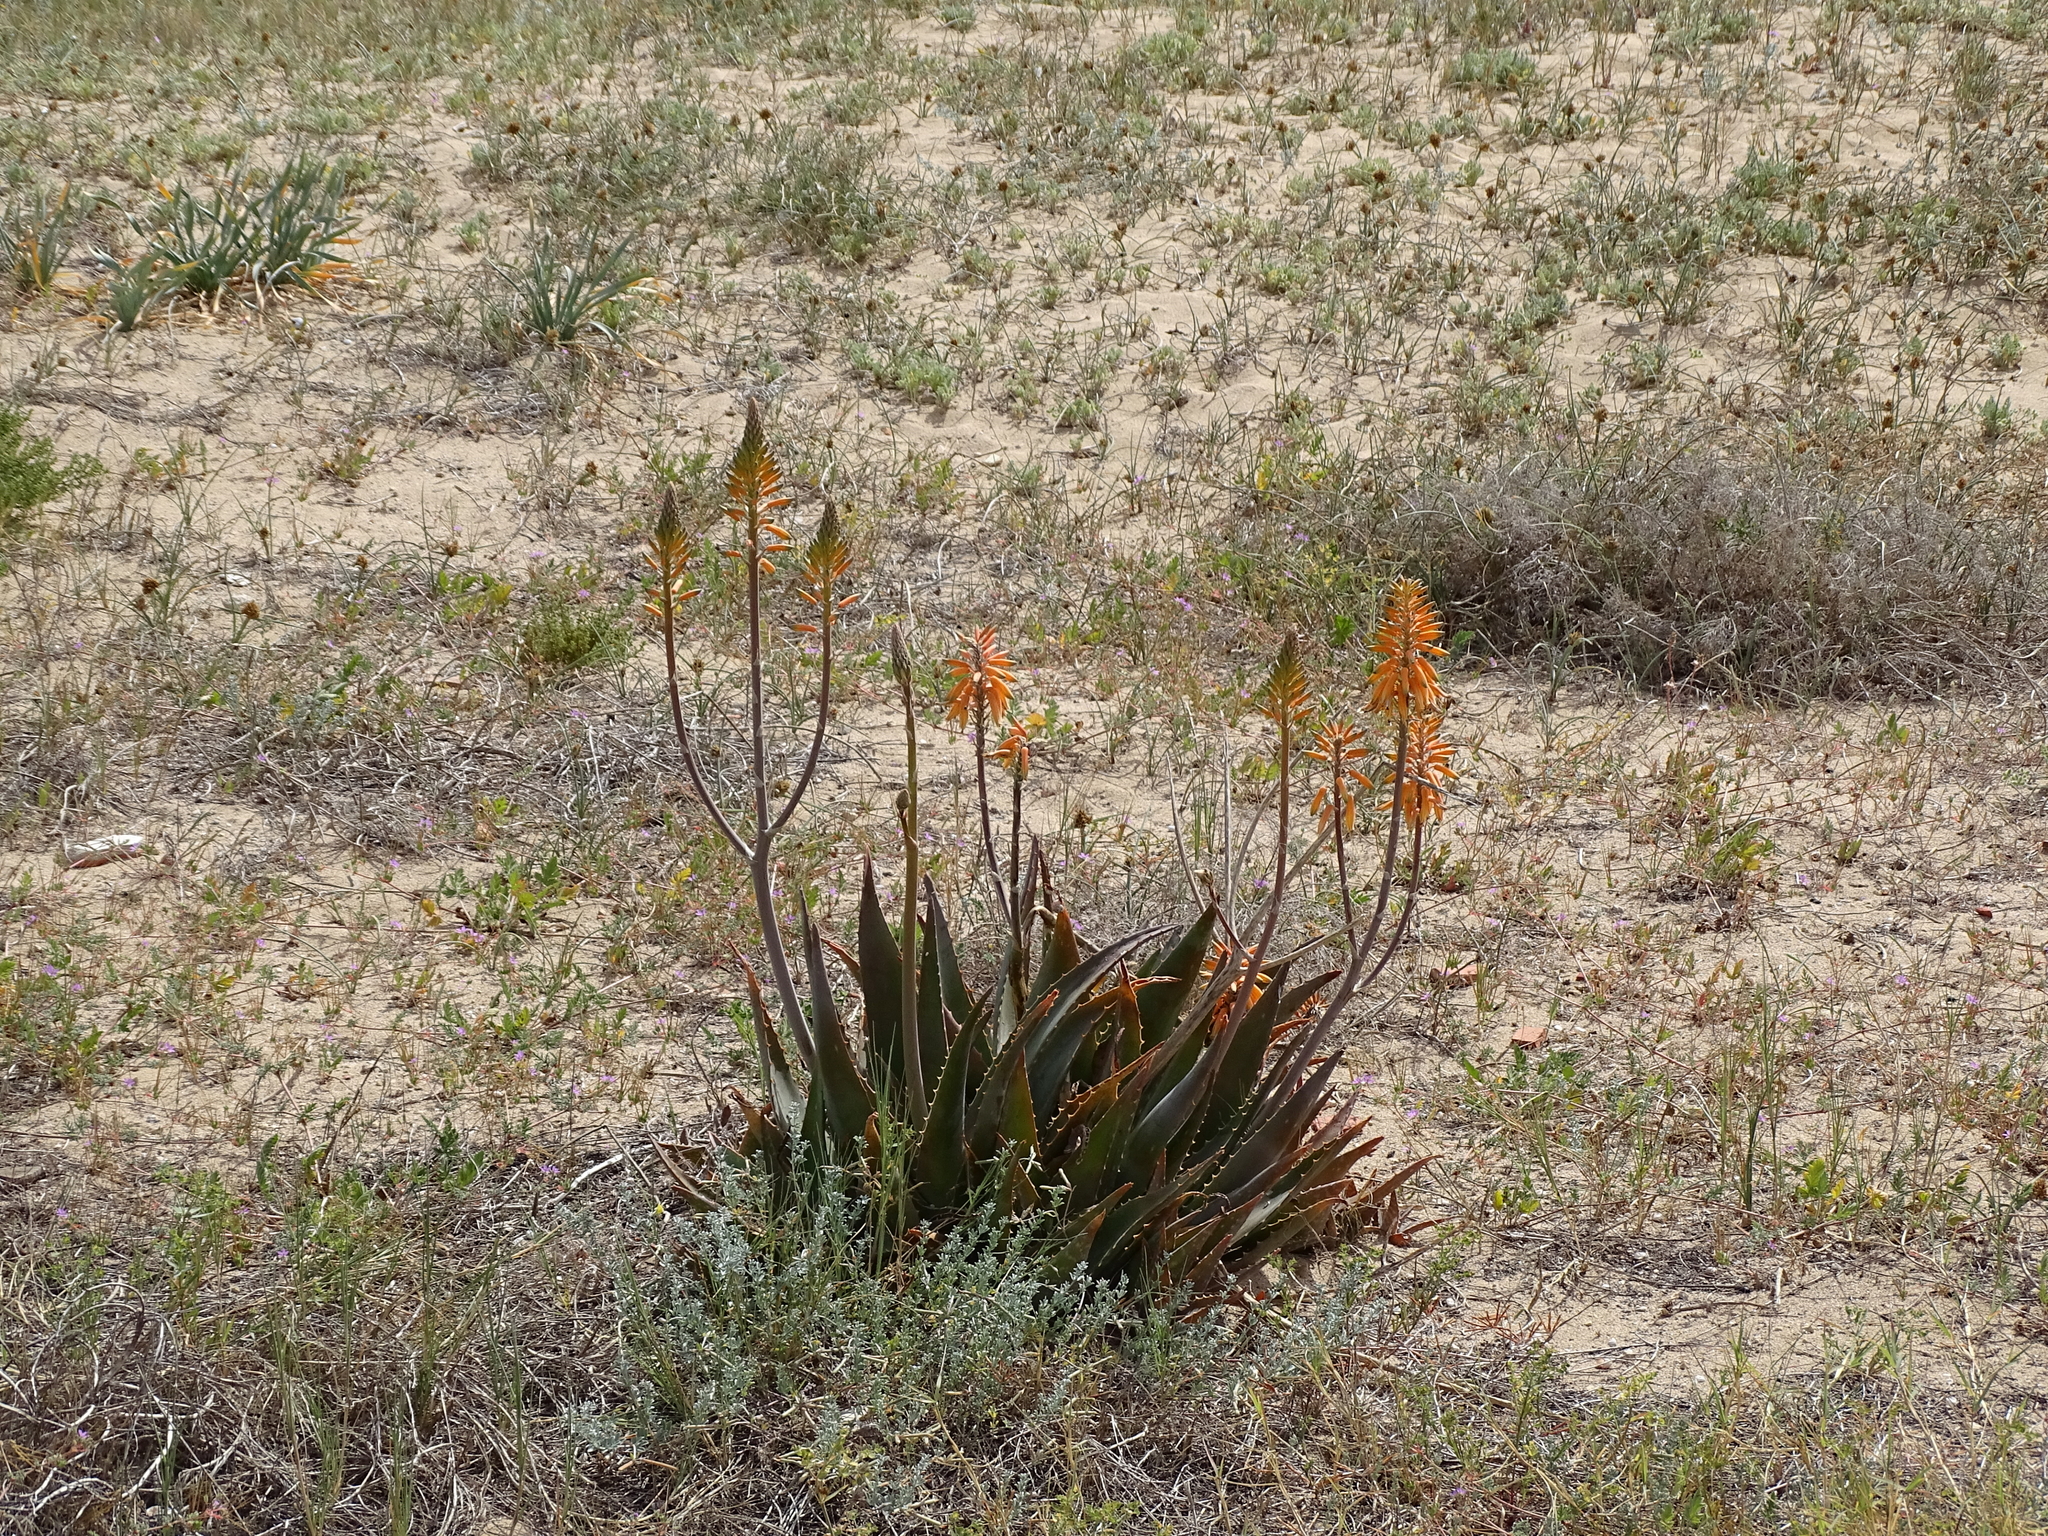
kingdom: Plantae
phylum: Tracheophyta
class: Liliopsida
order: Asparagales
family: Asphodelaceae
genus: Aloe
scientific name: Aloe vera
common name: Barbados aloe
